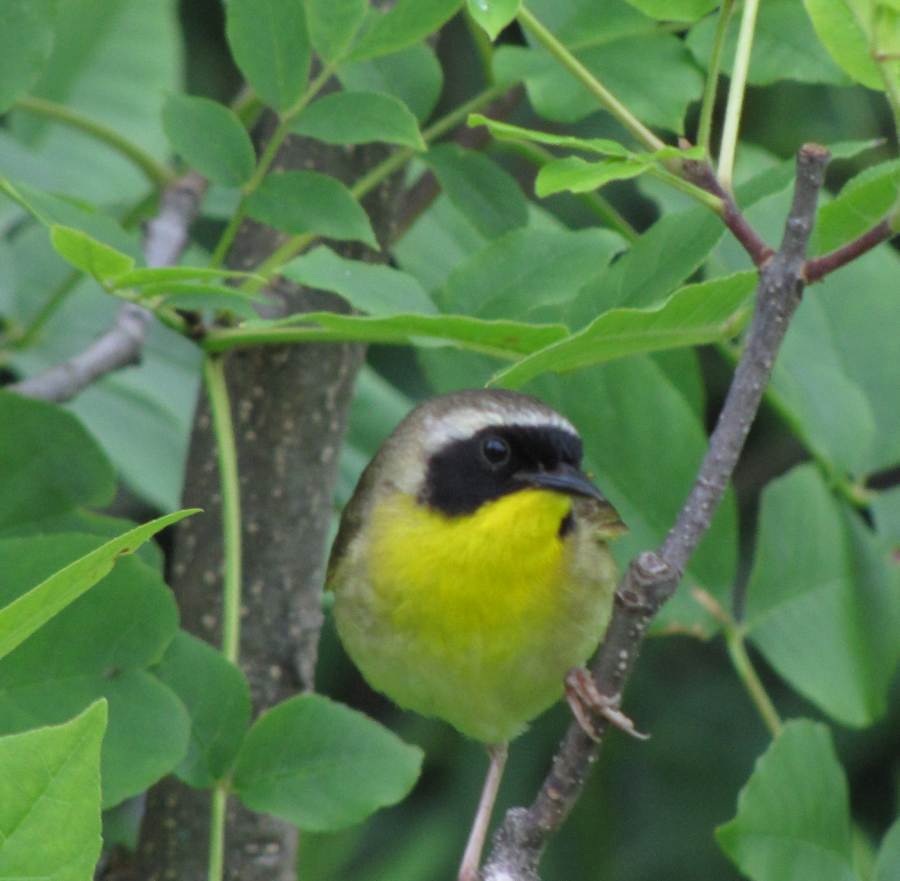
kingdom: Animalia
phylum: Chordata
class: Aves
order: Passeriformes
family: Parulidae
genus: Geothlypis
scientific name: Geothlypis trichas
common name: Common yellowthroat
